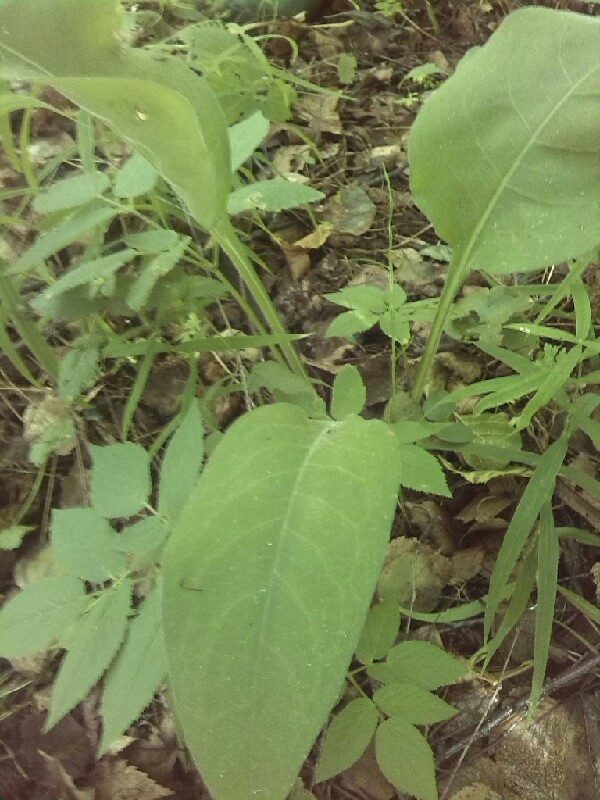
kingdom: Plantae
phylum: Tracheophyta
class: Magnoliopsida
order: Boraginales
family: Boraginaceae
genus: Pulmonaria
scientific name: Pulmonaria mollis
